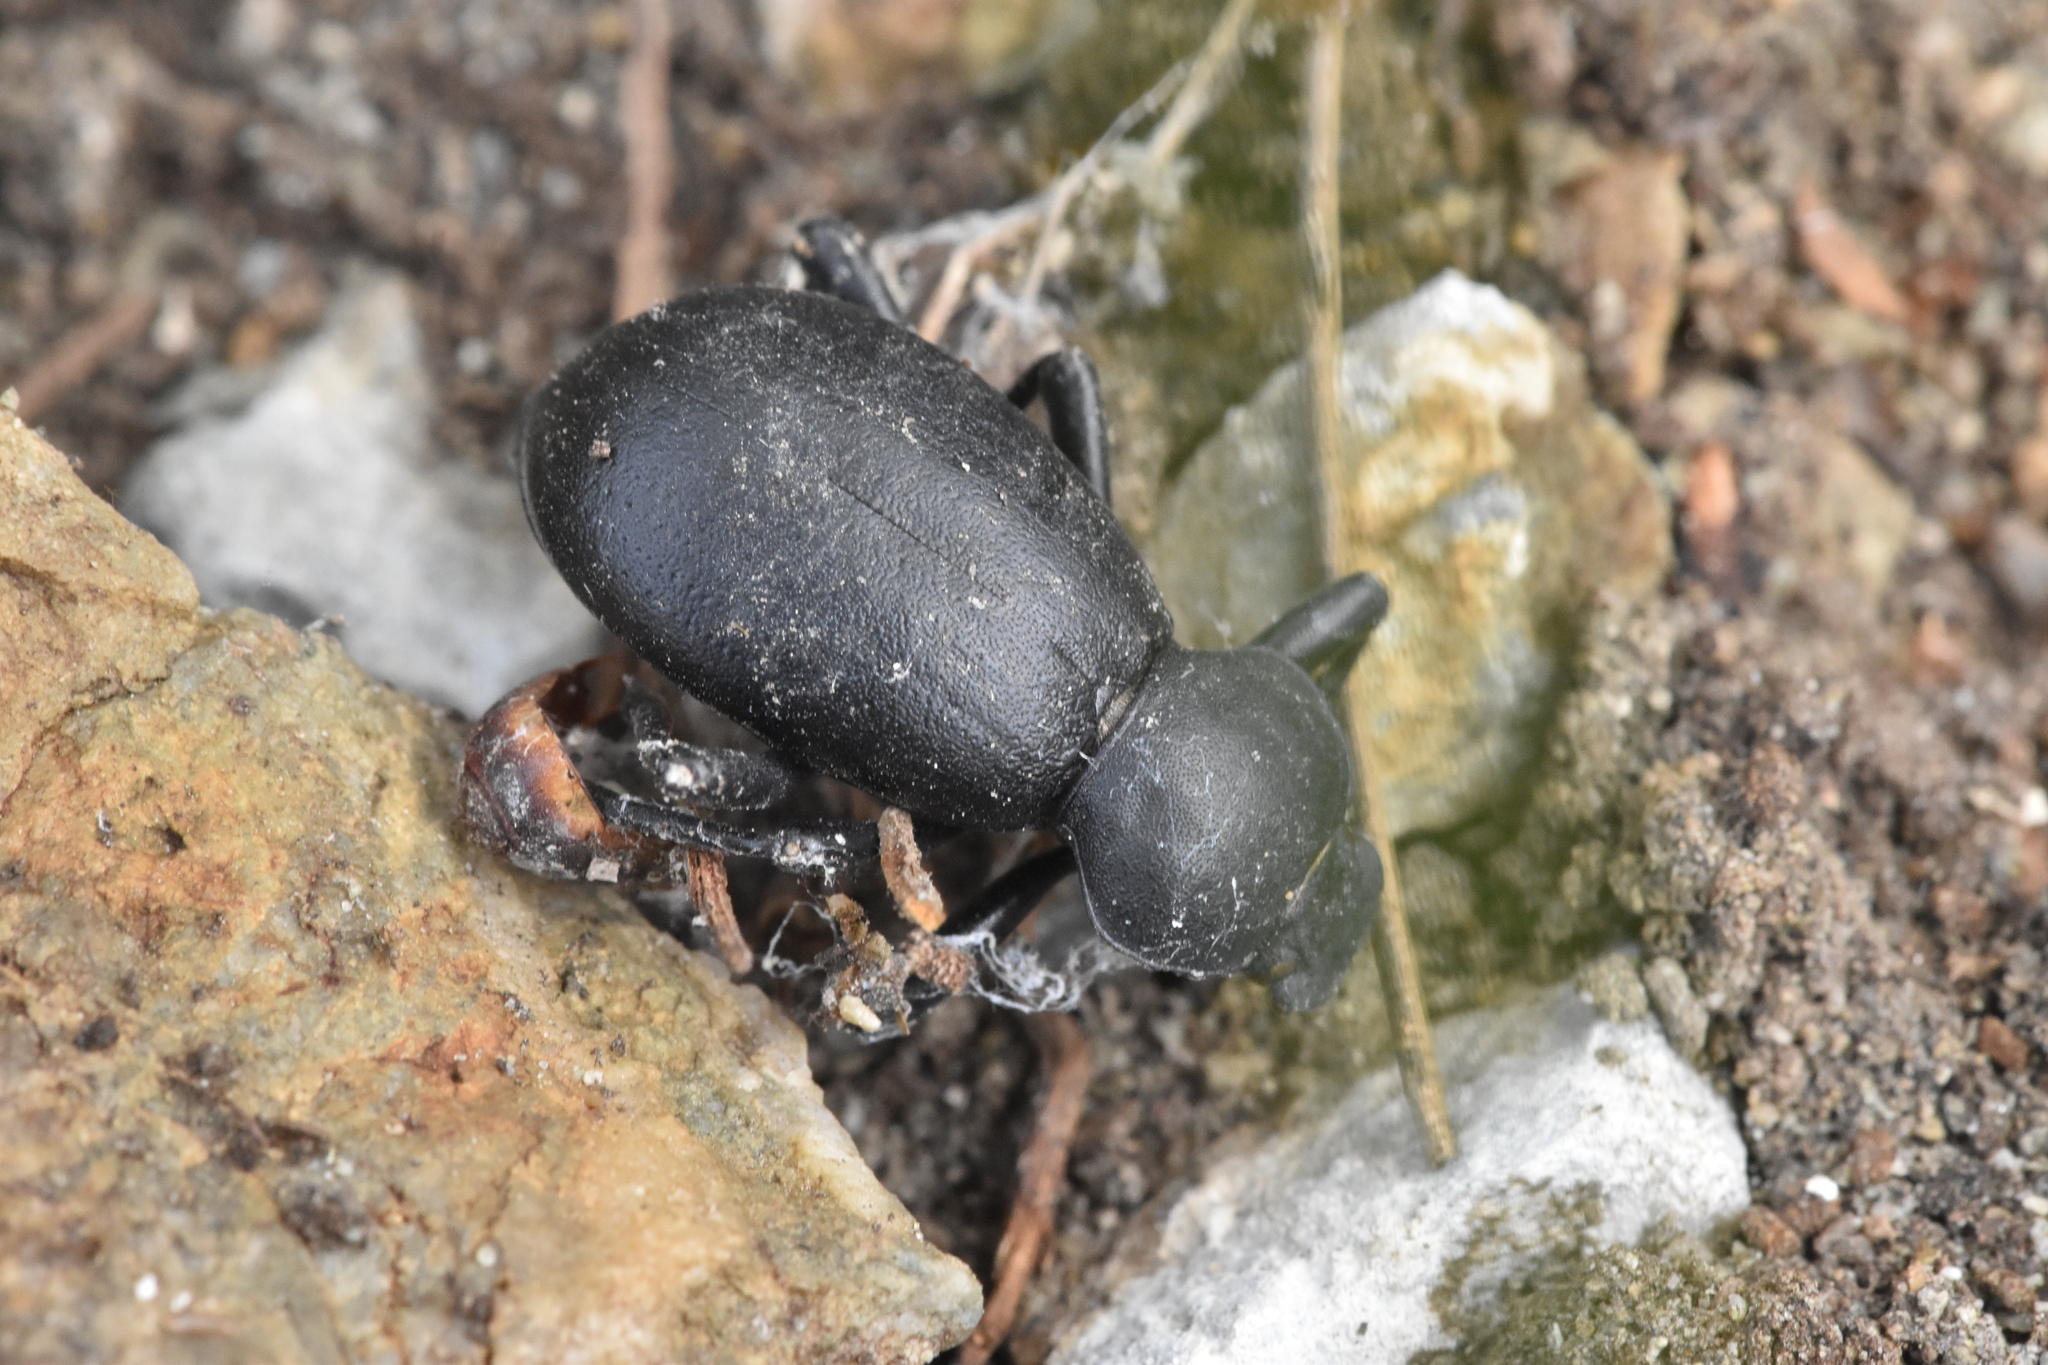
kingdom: Animalia
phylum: Arthropoda
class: Insecta
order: Coleoptera
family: Tenebrionidae
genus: Coelocnemis
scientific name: Coelocnemis dilaticollis
